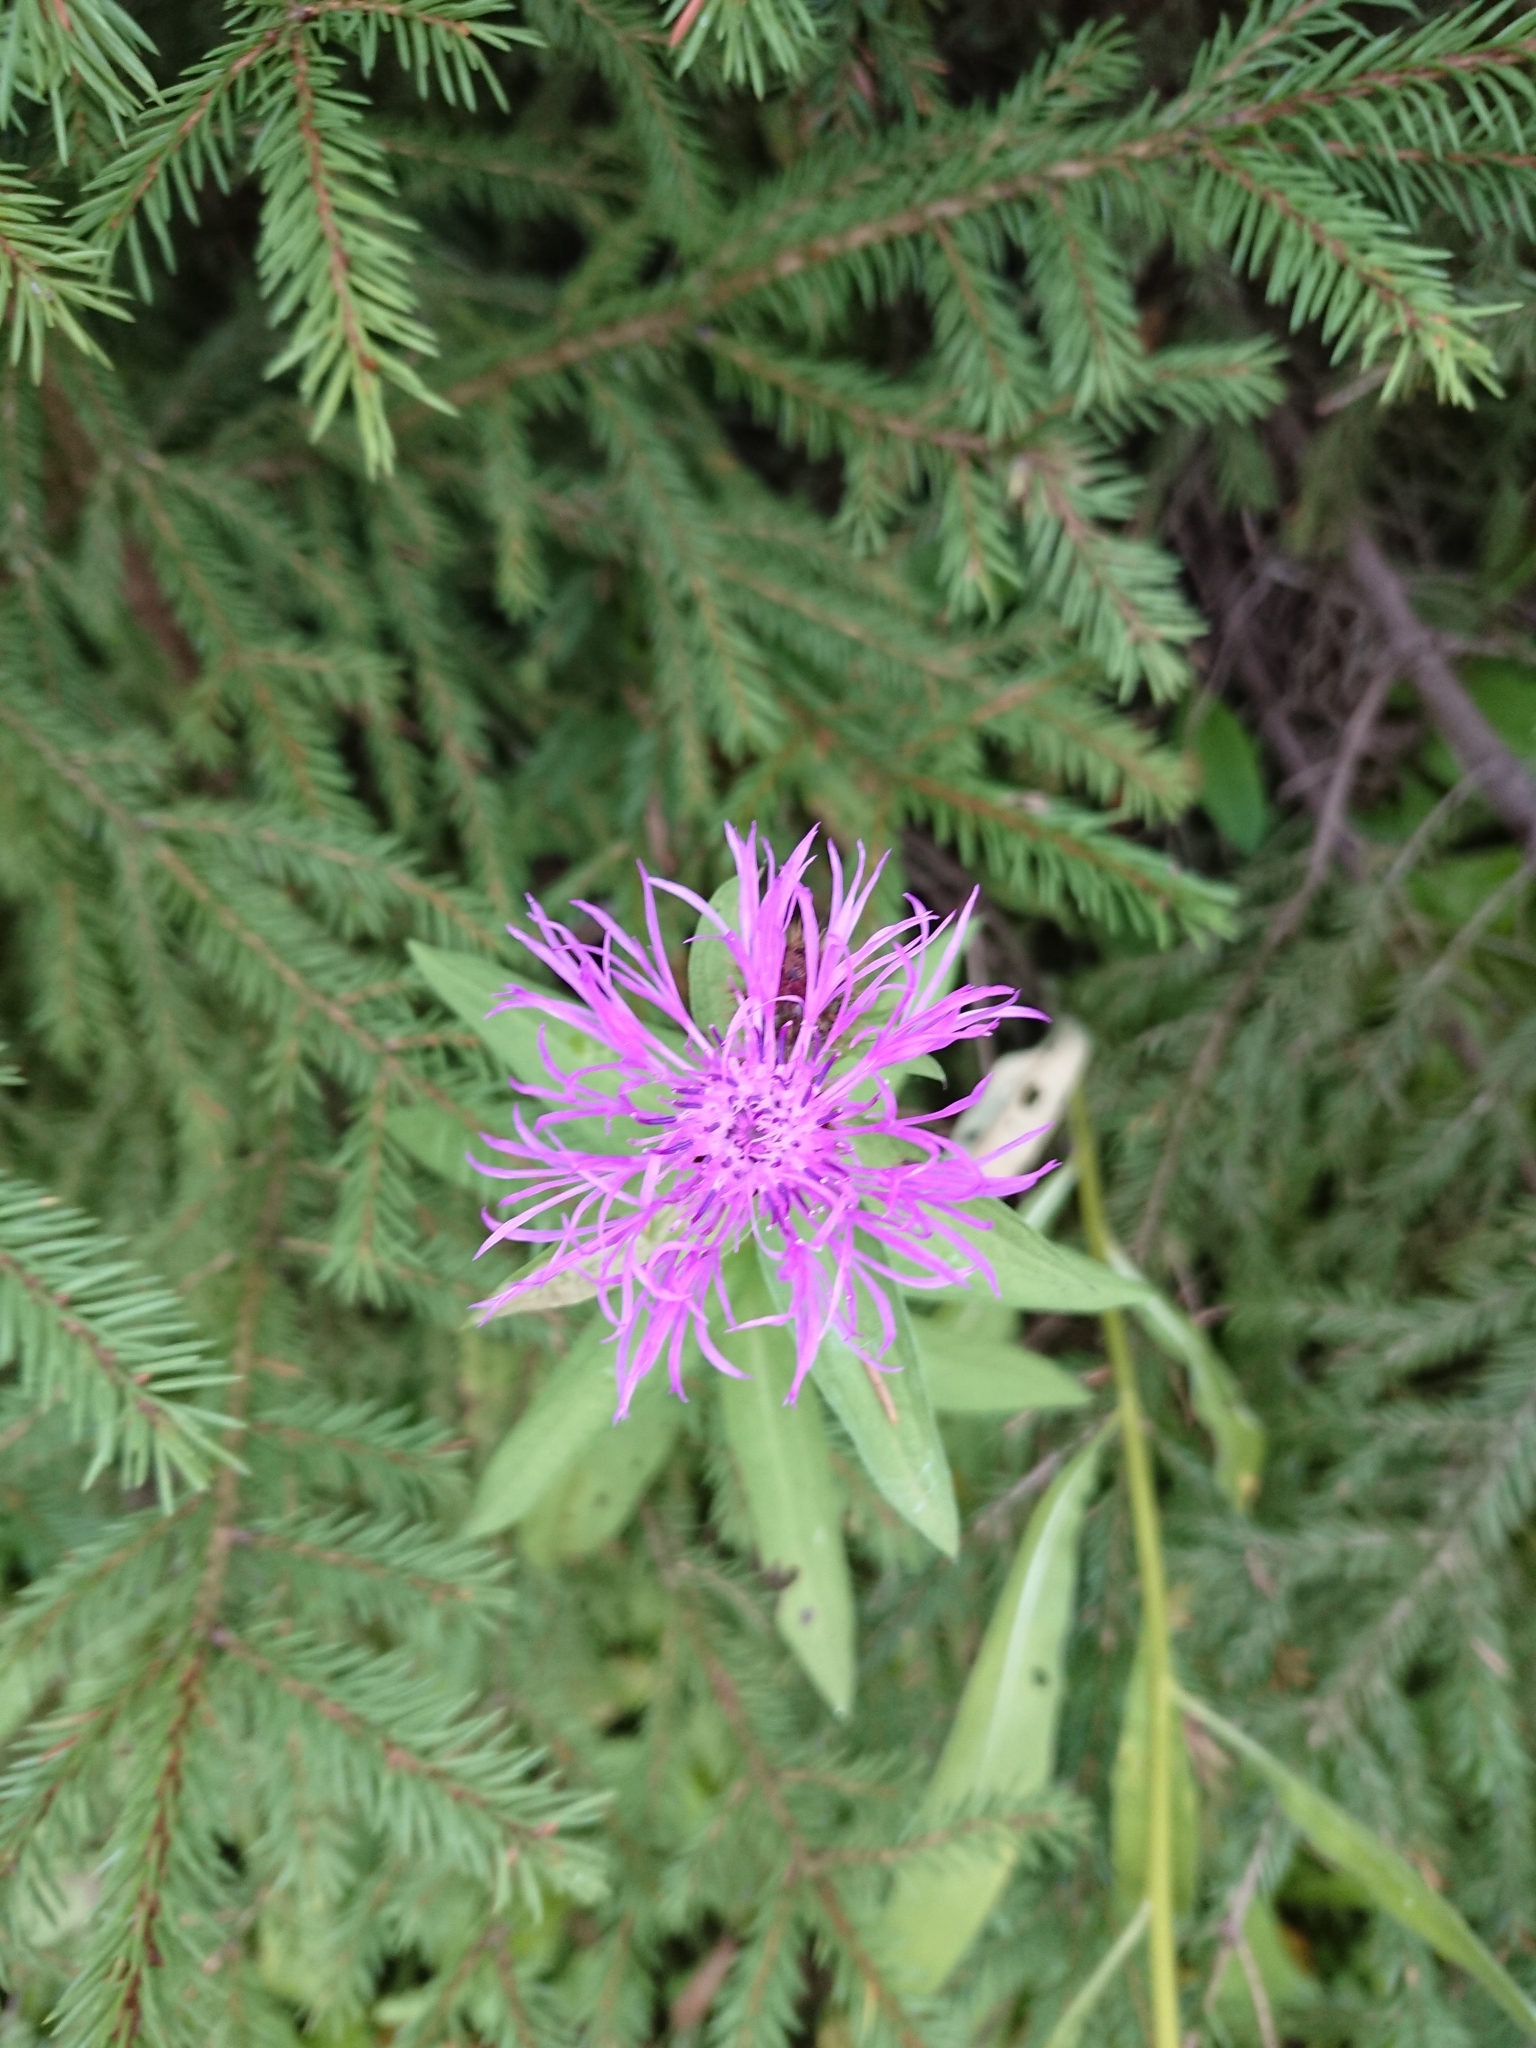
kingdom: Plantae
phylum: Tracheophyta
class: Magnoliopsida
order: Asterales
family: Asteraceae
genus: Centaurea
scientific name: Centaurea phrygia
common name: Wig knapweed
